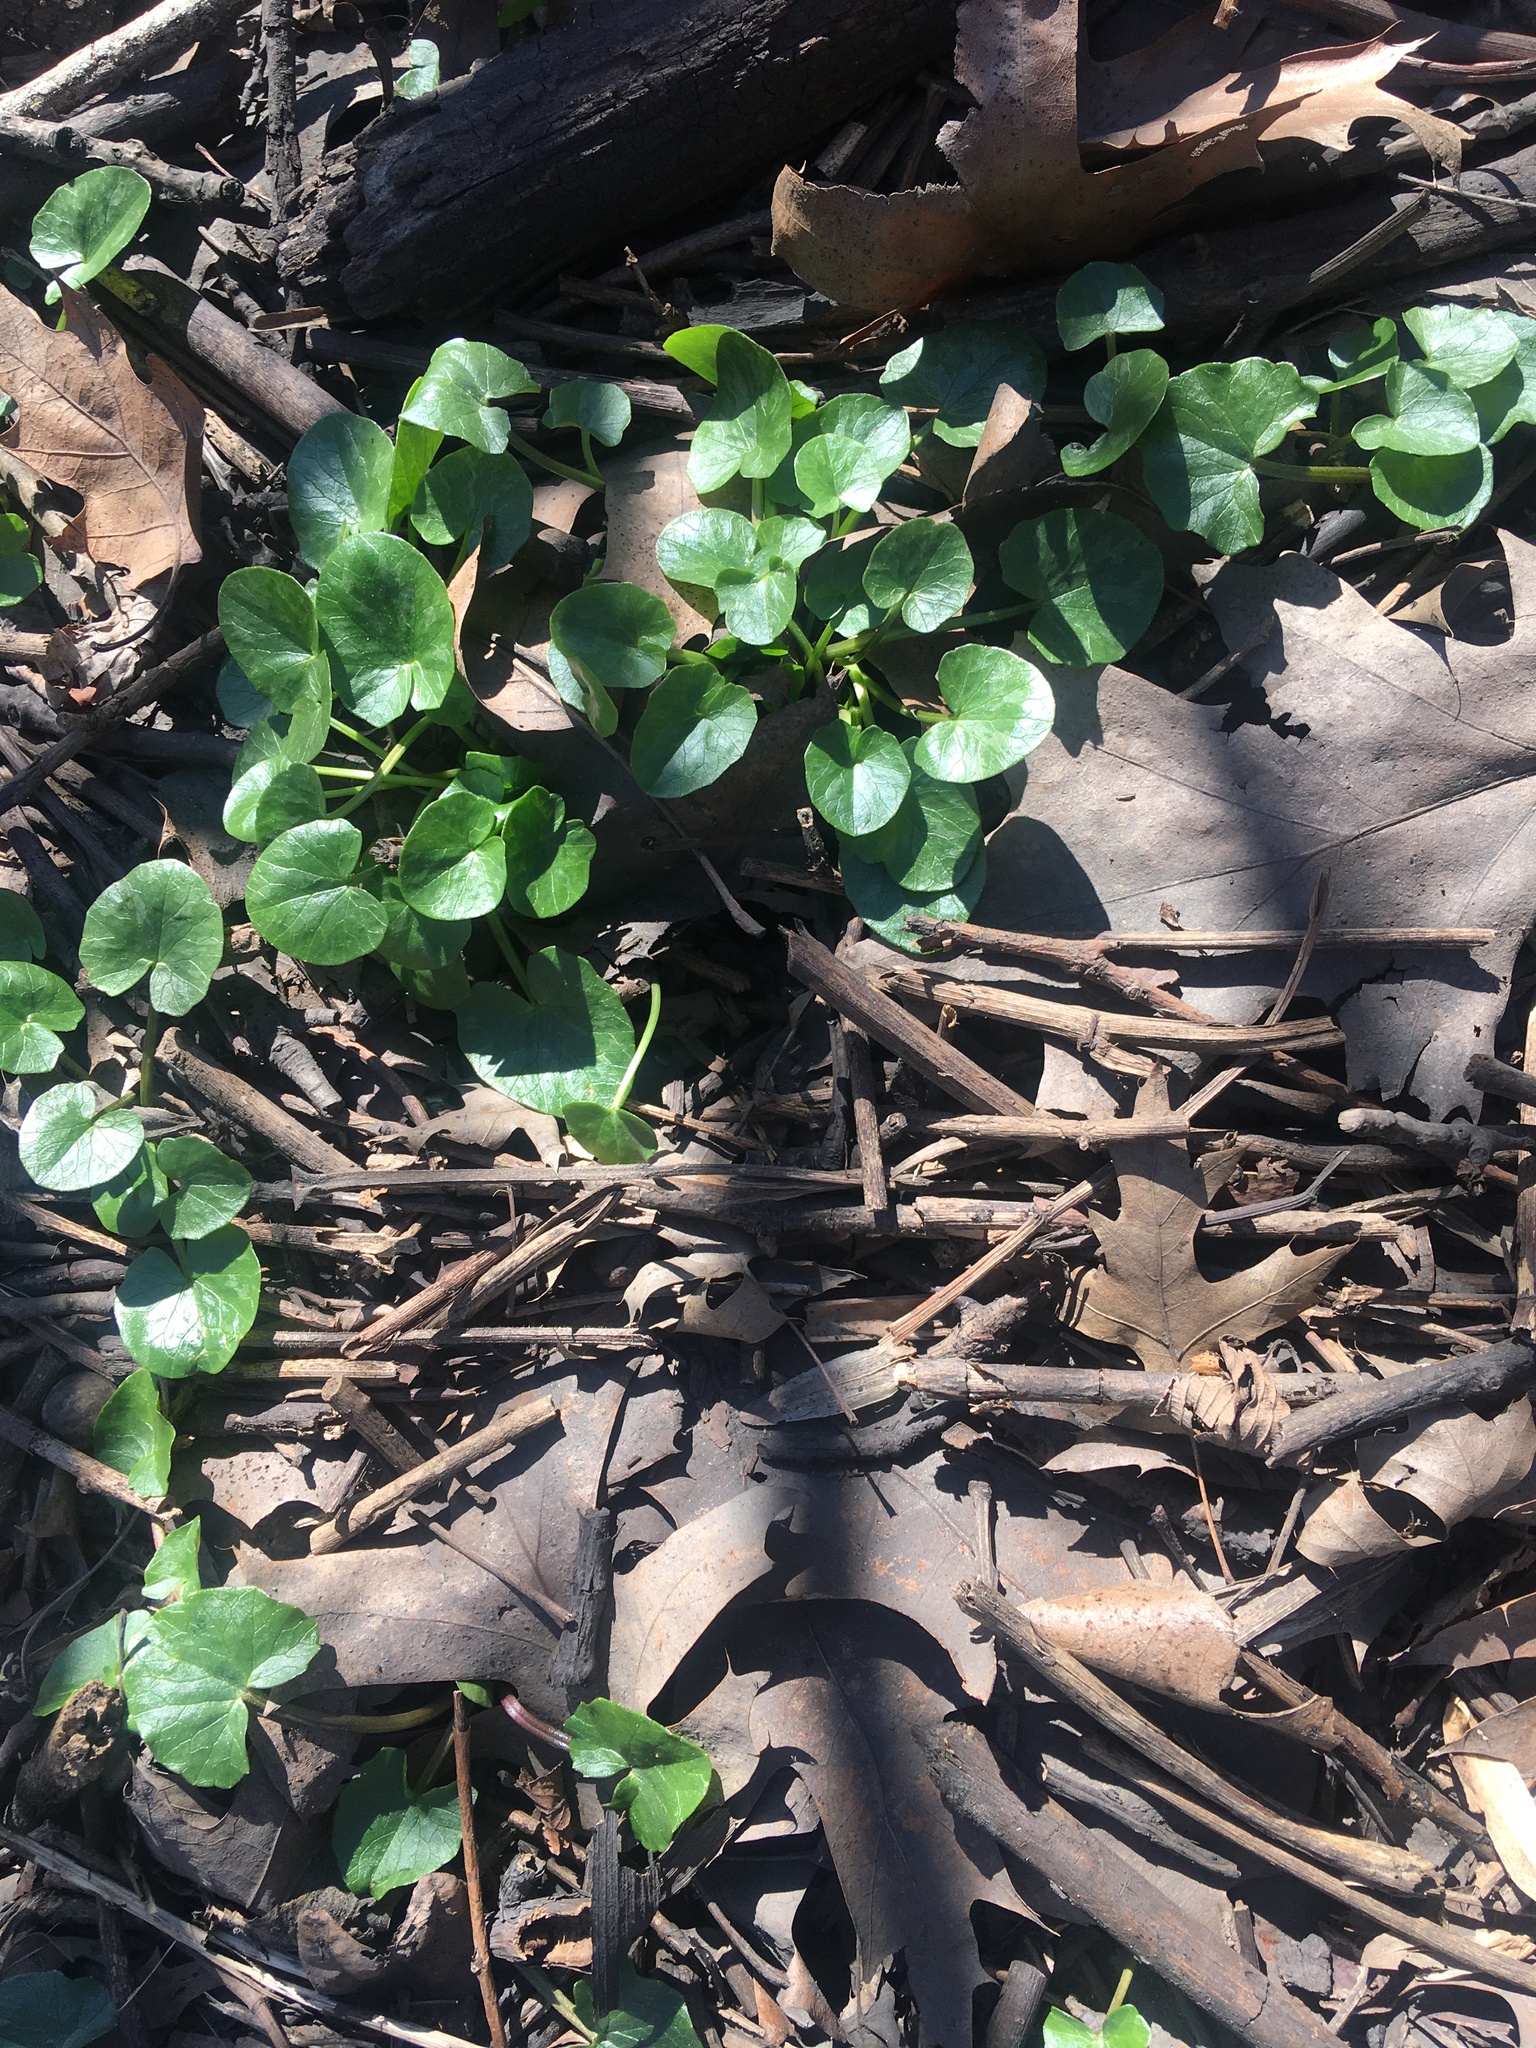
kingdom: Plantae
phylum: Tracheophyta
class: Magnoliopsida
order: Ranunculales
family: Ranunculaceae
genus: Ficaria
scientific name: Ficaria verna
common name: Lesser celandine
